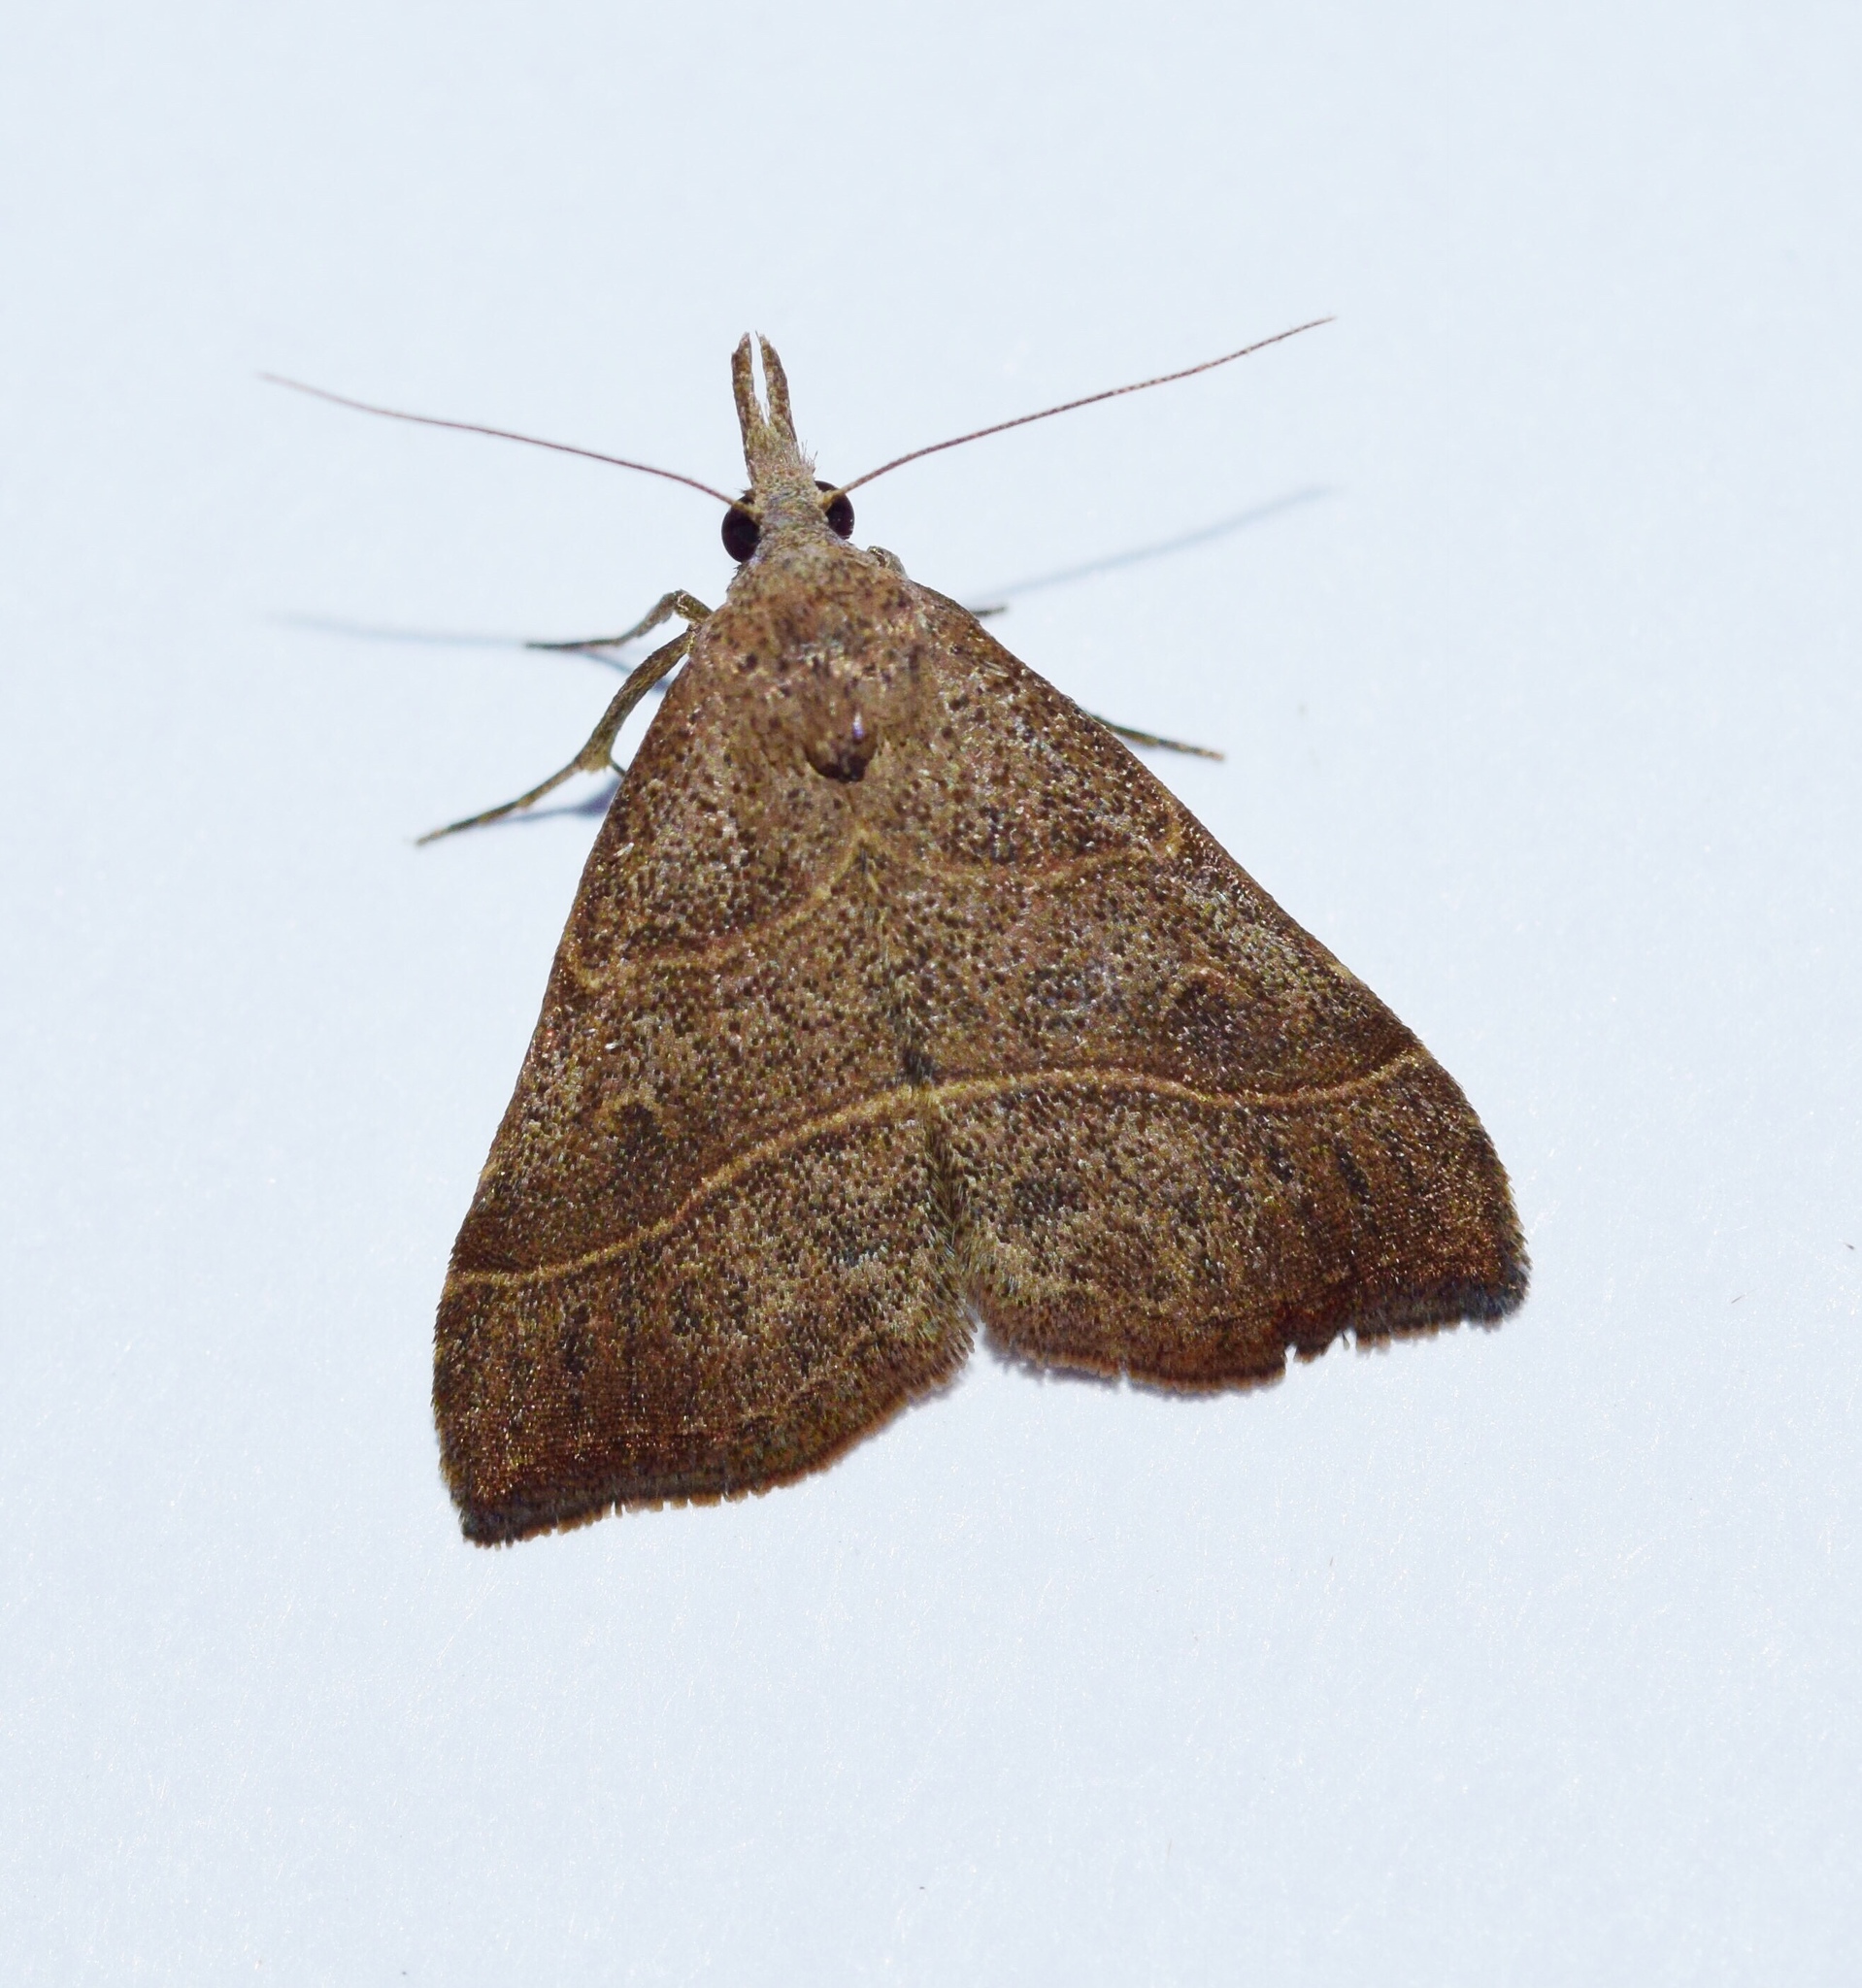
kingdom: Animalia
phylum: Arthropoda
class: Insecta
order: Lepidoptera
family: Erebidae
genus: Bertula
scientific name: Bertula inconspicua
